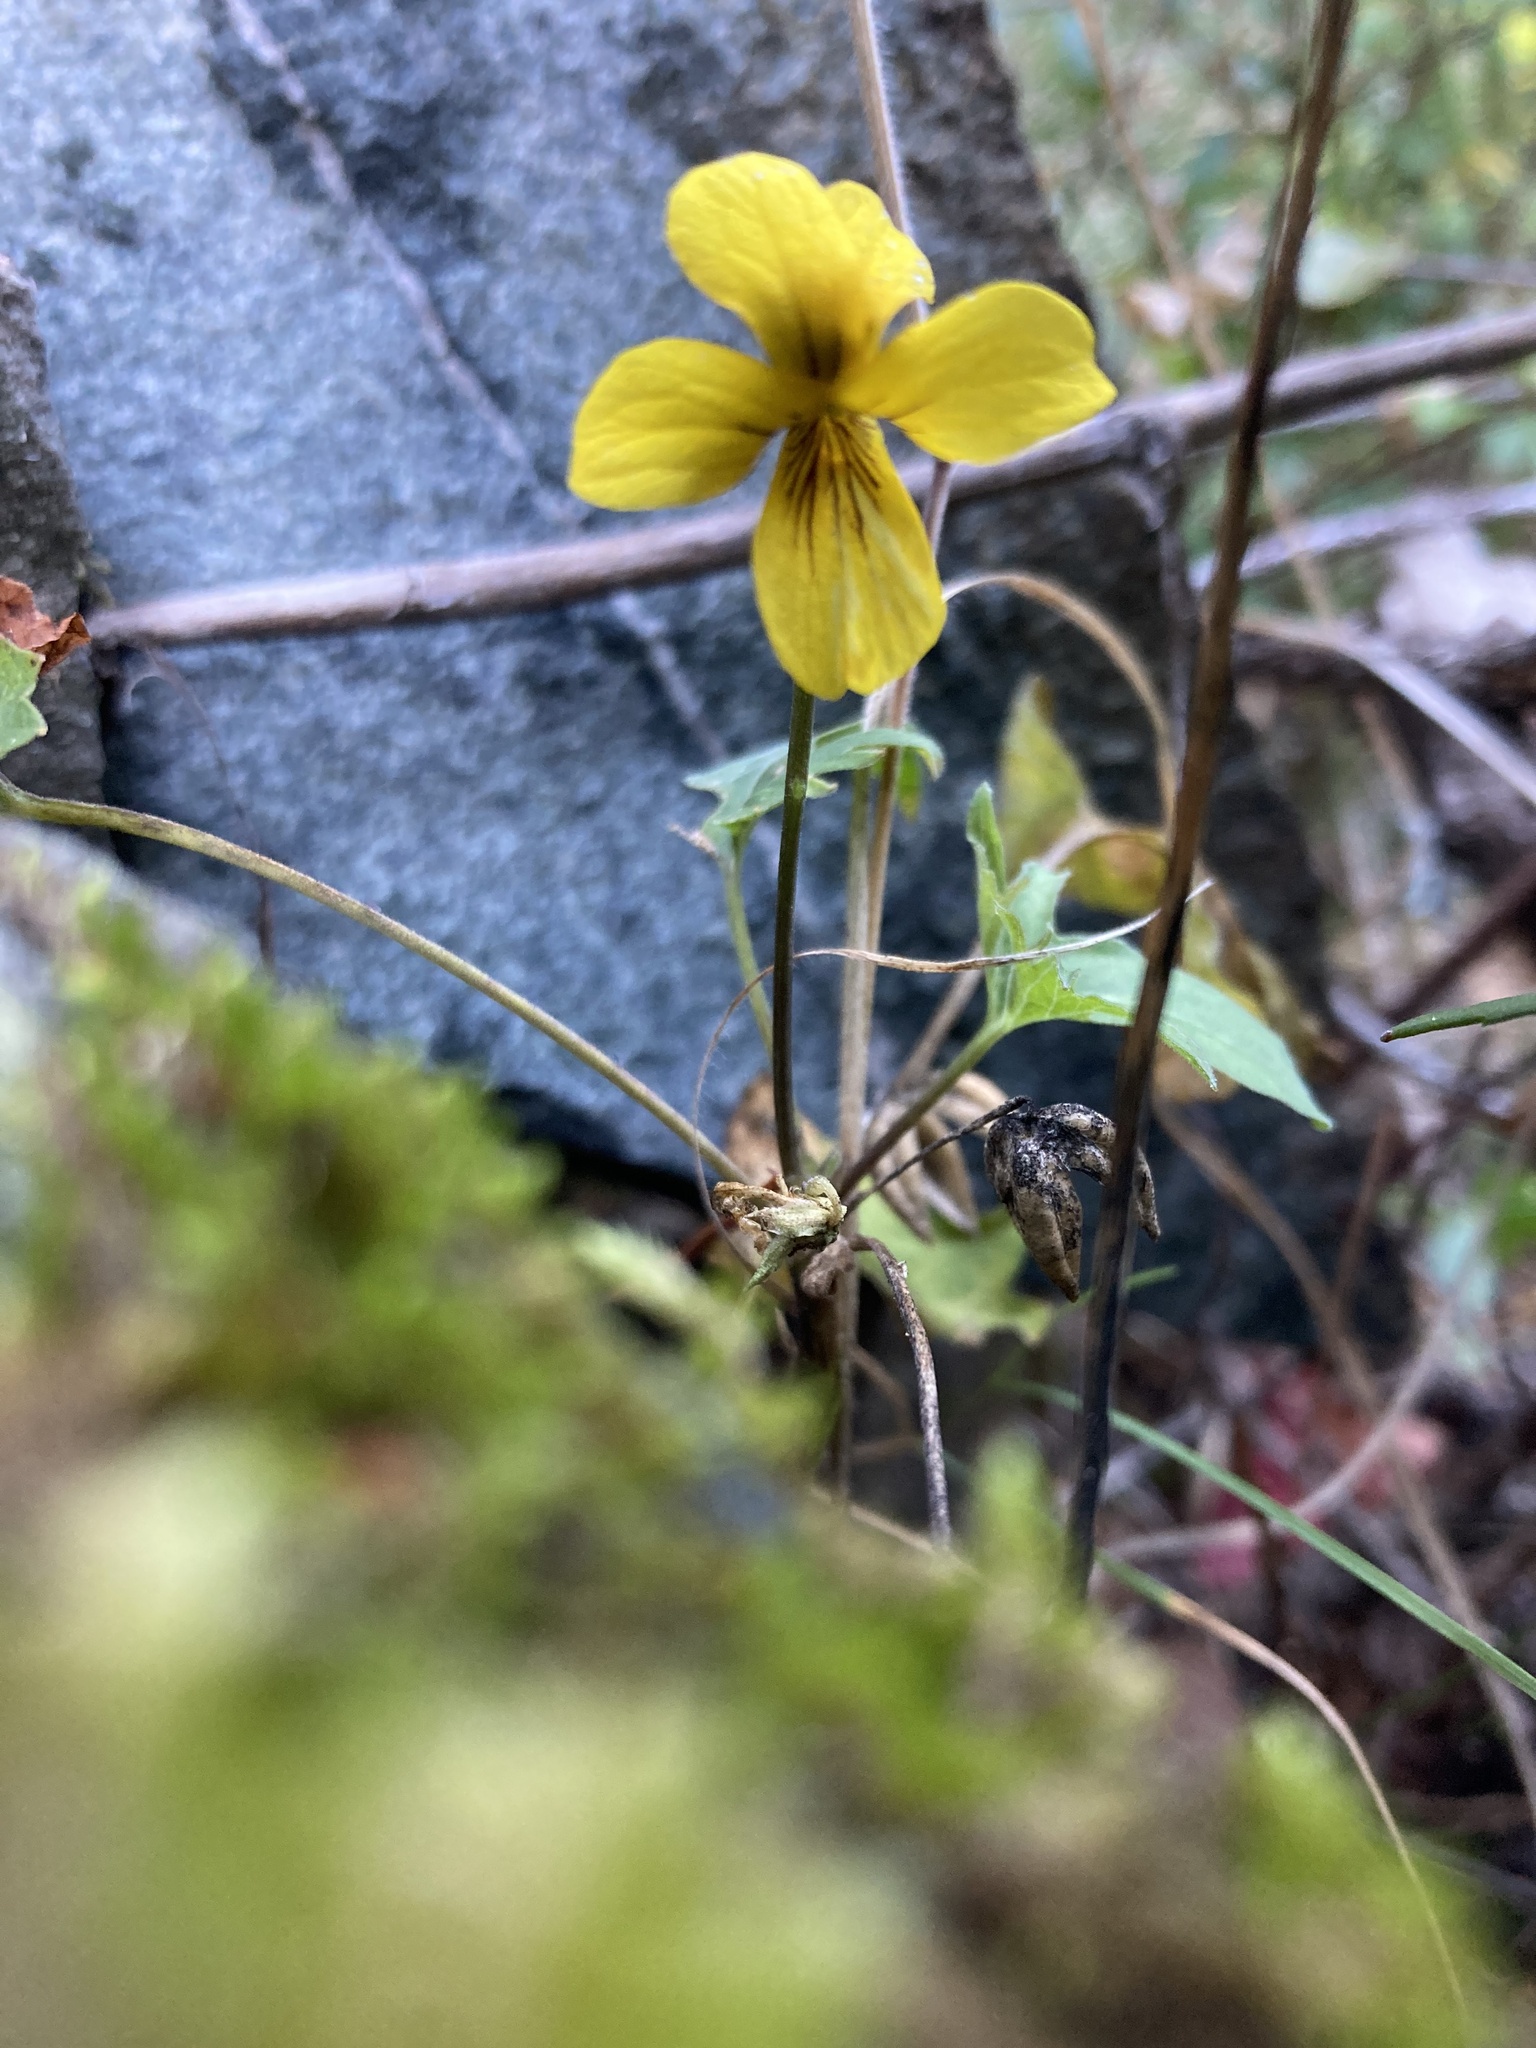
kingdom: Plantae
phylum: Tracheophyta
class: Magnoliopsida
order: Malpighiales
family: Violaceae
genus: Viola
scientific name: Viola lobata
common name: Pine violet
